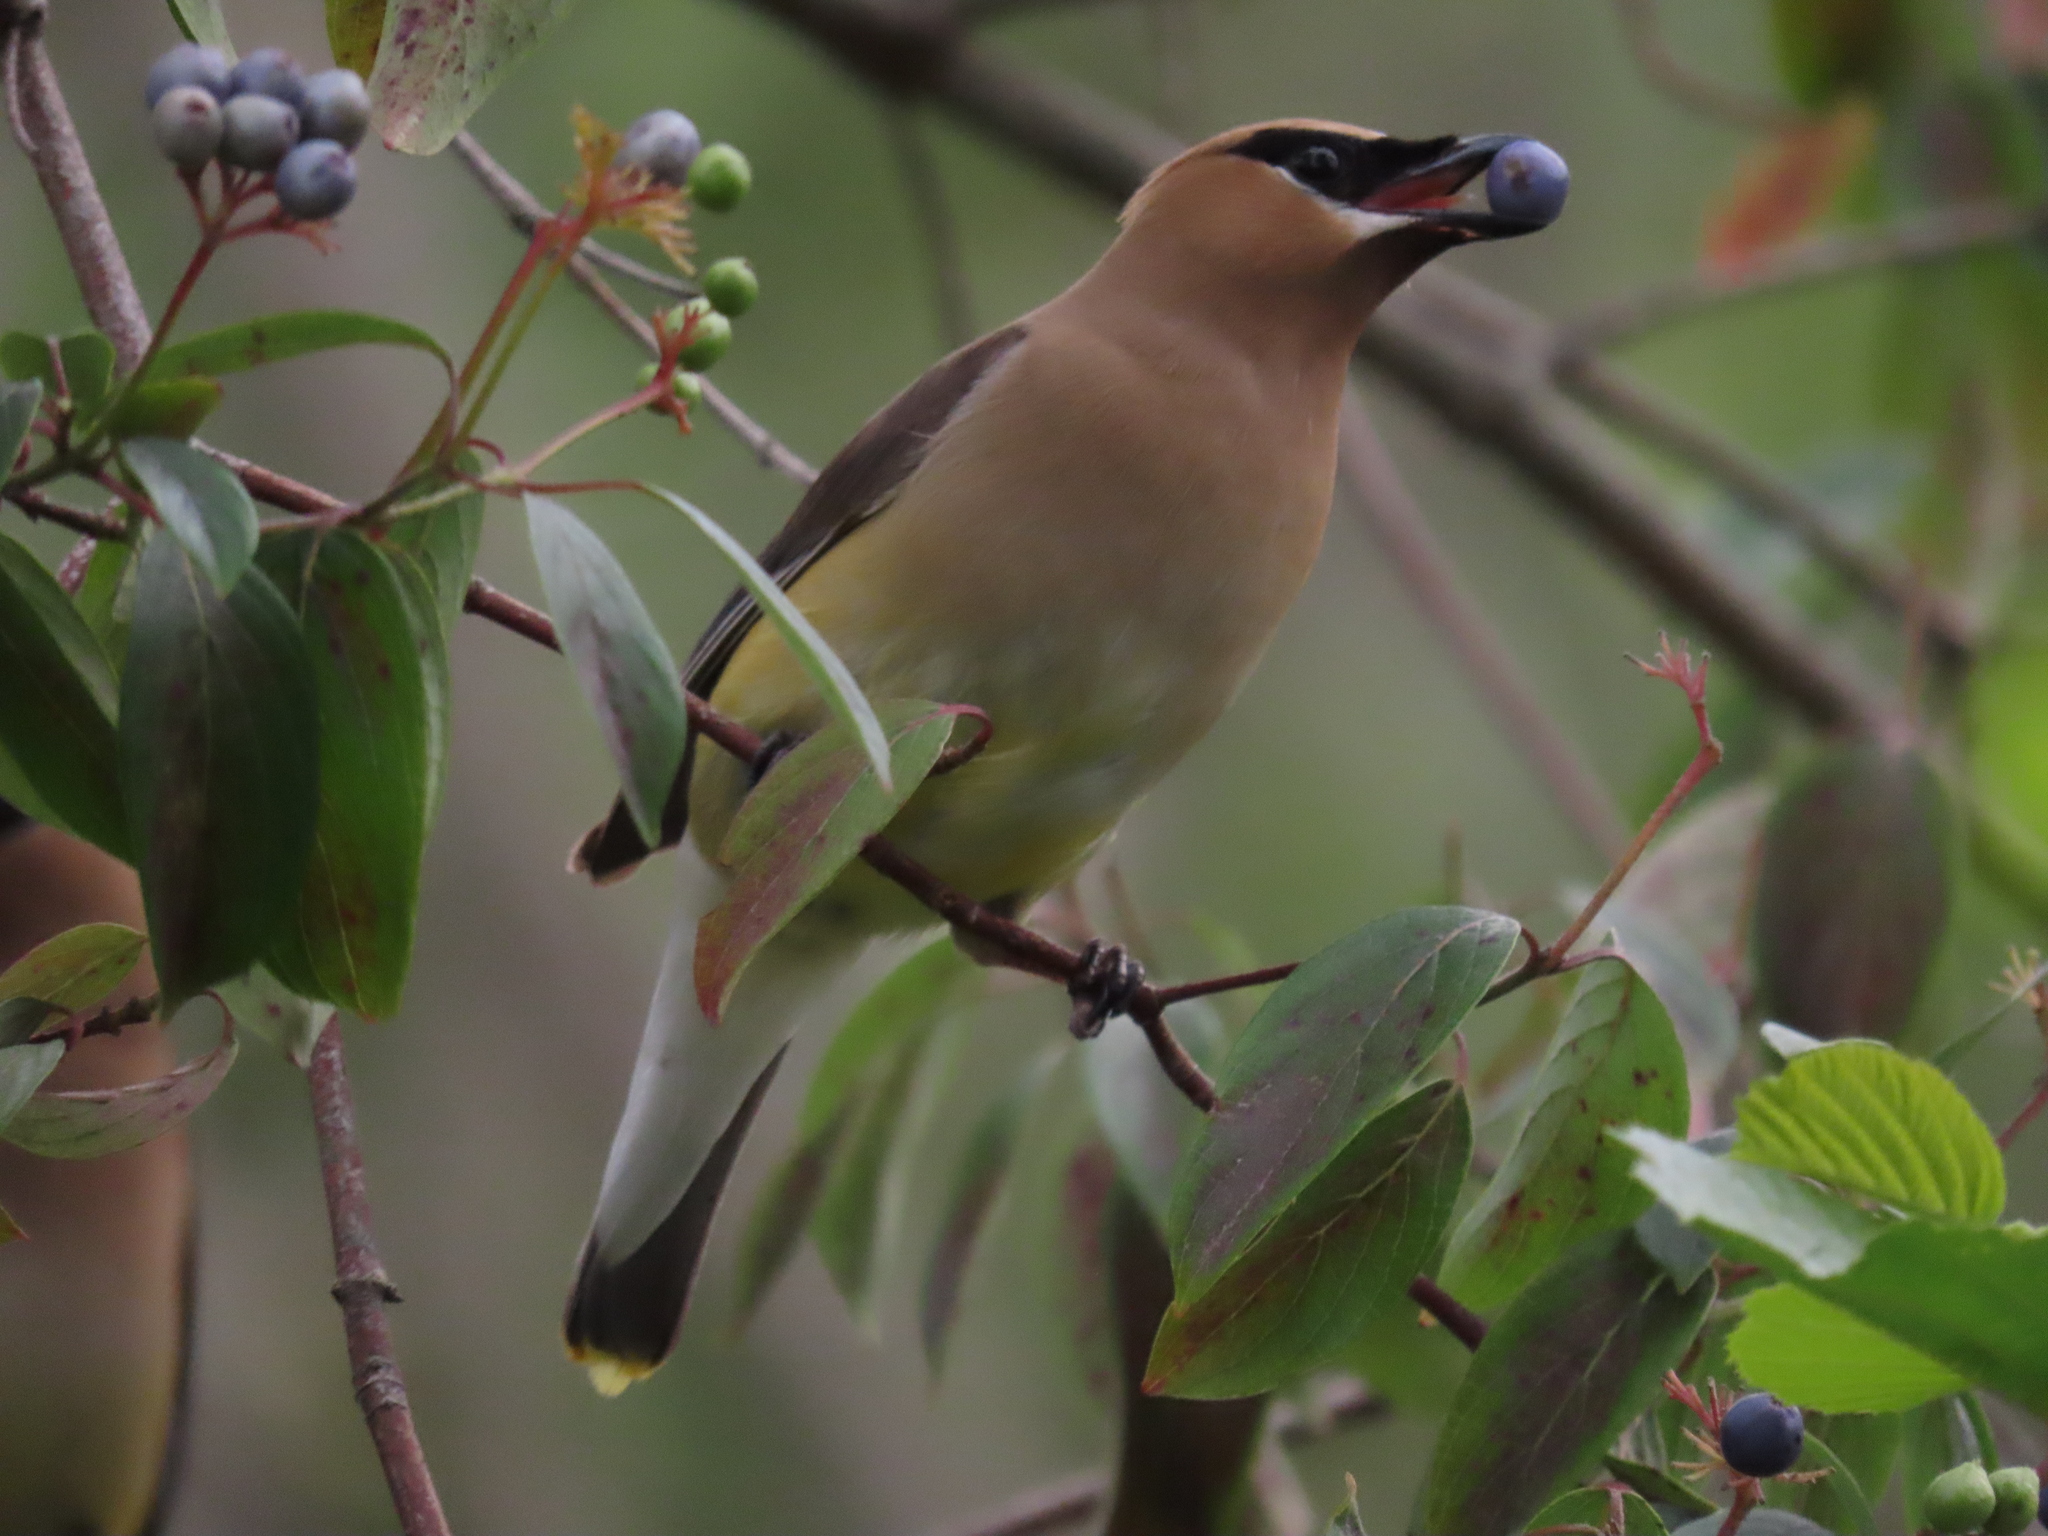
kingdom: Animalia
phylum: Chordata
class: Aves
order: Passeriformes
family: Bombycillidae
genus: Bombycilla
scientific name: Bombycilla cedrorum
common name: Cedar waxwing
